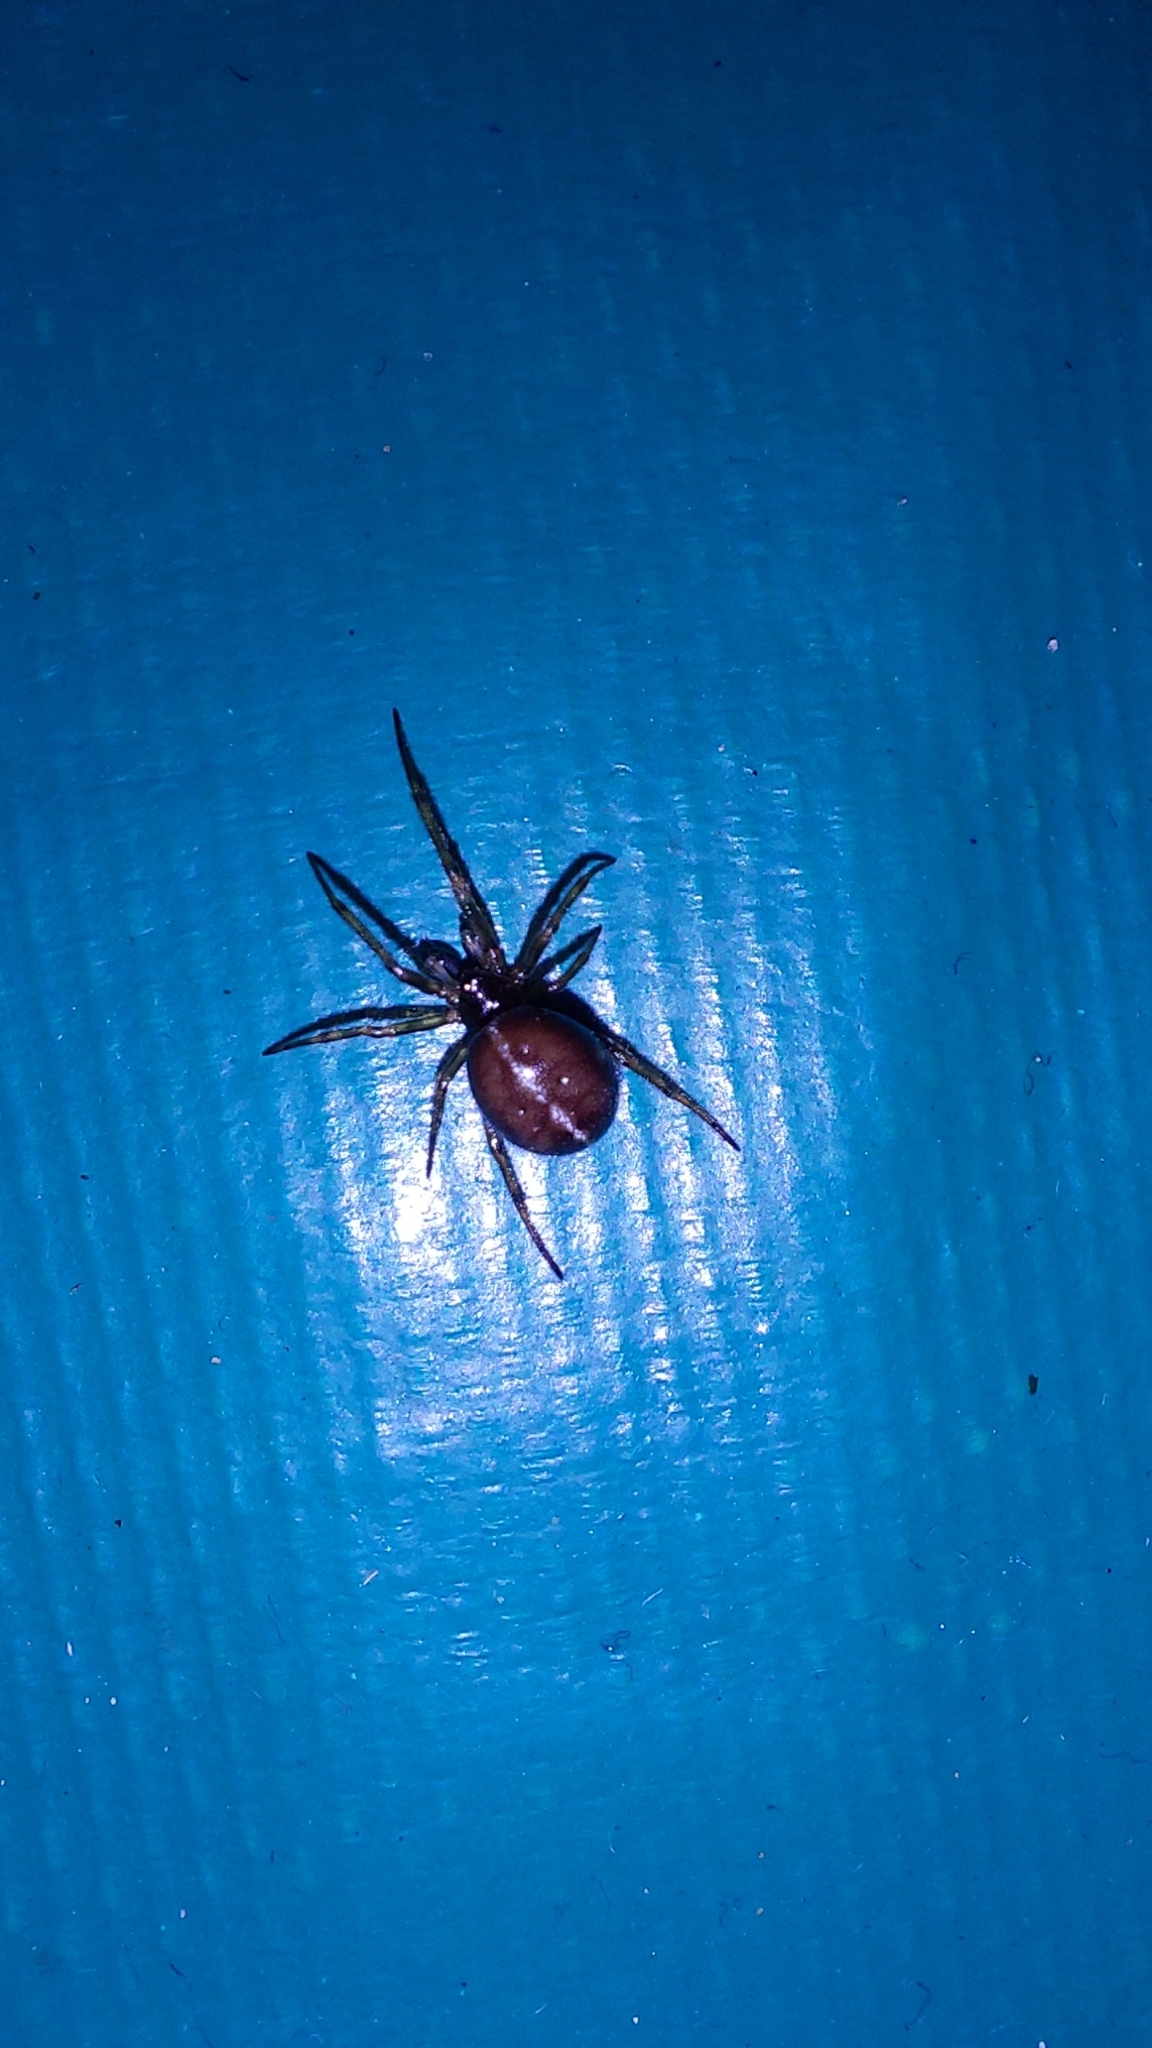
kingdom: Animalia
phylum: Arthropoda
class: Arachnida
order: Araneae
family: Theridiidae
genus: Steatoda
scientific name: Steatoda bipunctata
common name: False widow
